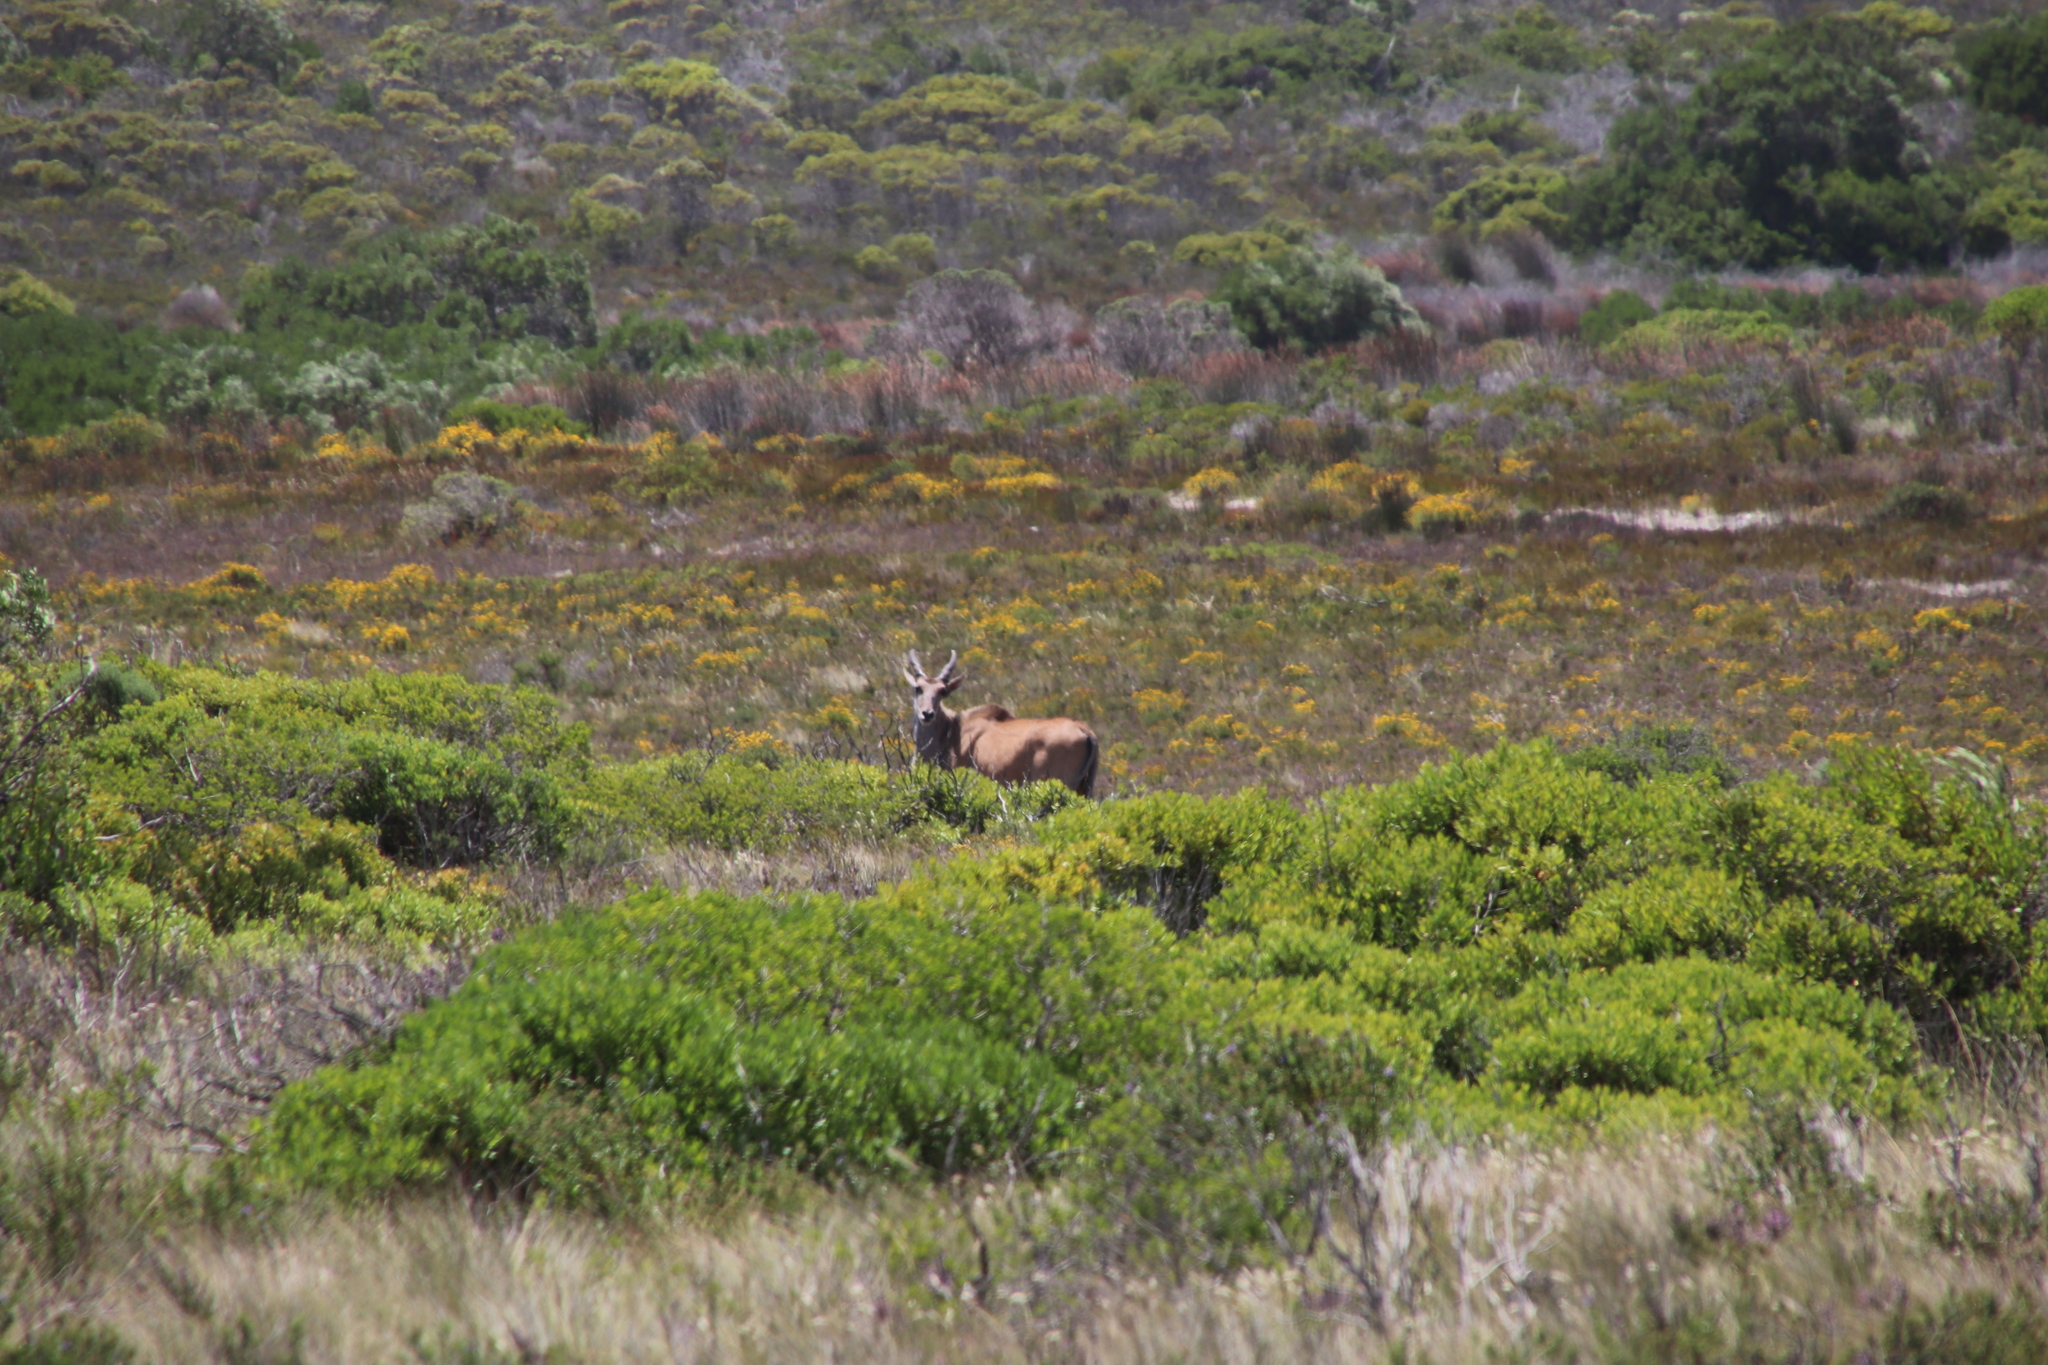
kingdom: Animalia
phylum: Chordata
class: Mammalia
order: Artiodactyla
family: Bovidae
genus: Taurotragus
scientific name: Taurotragus oryx
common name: Common eland
